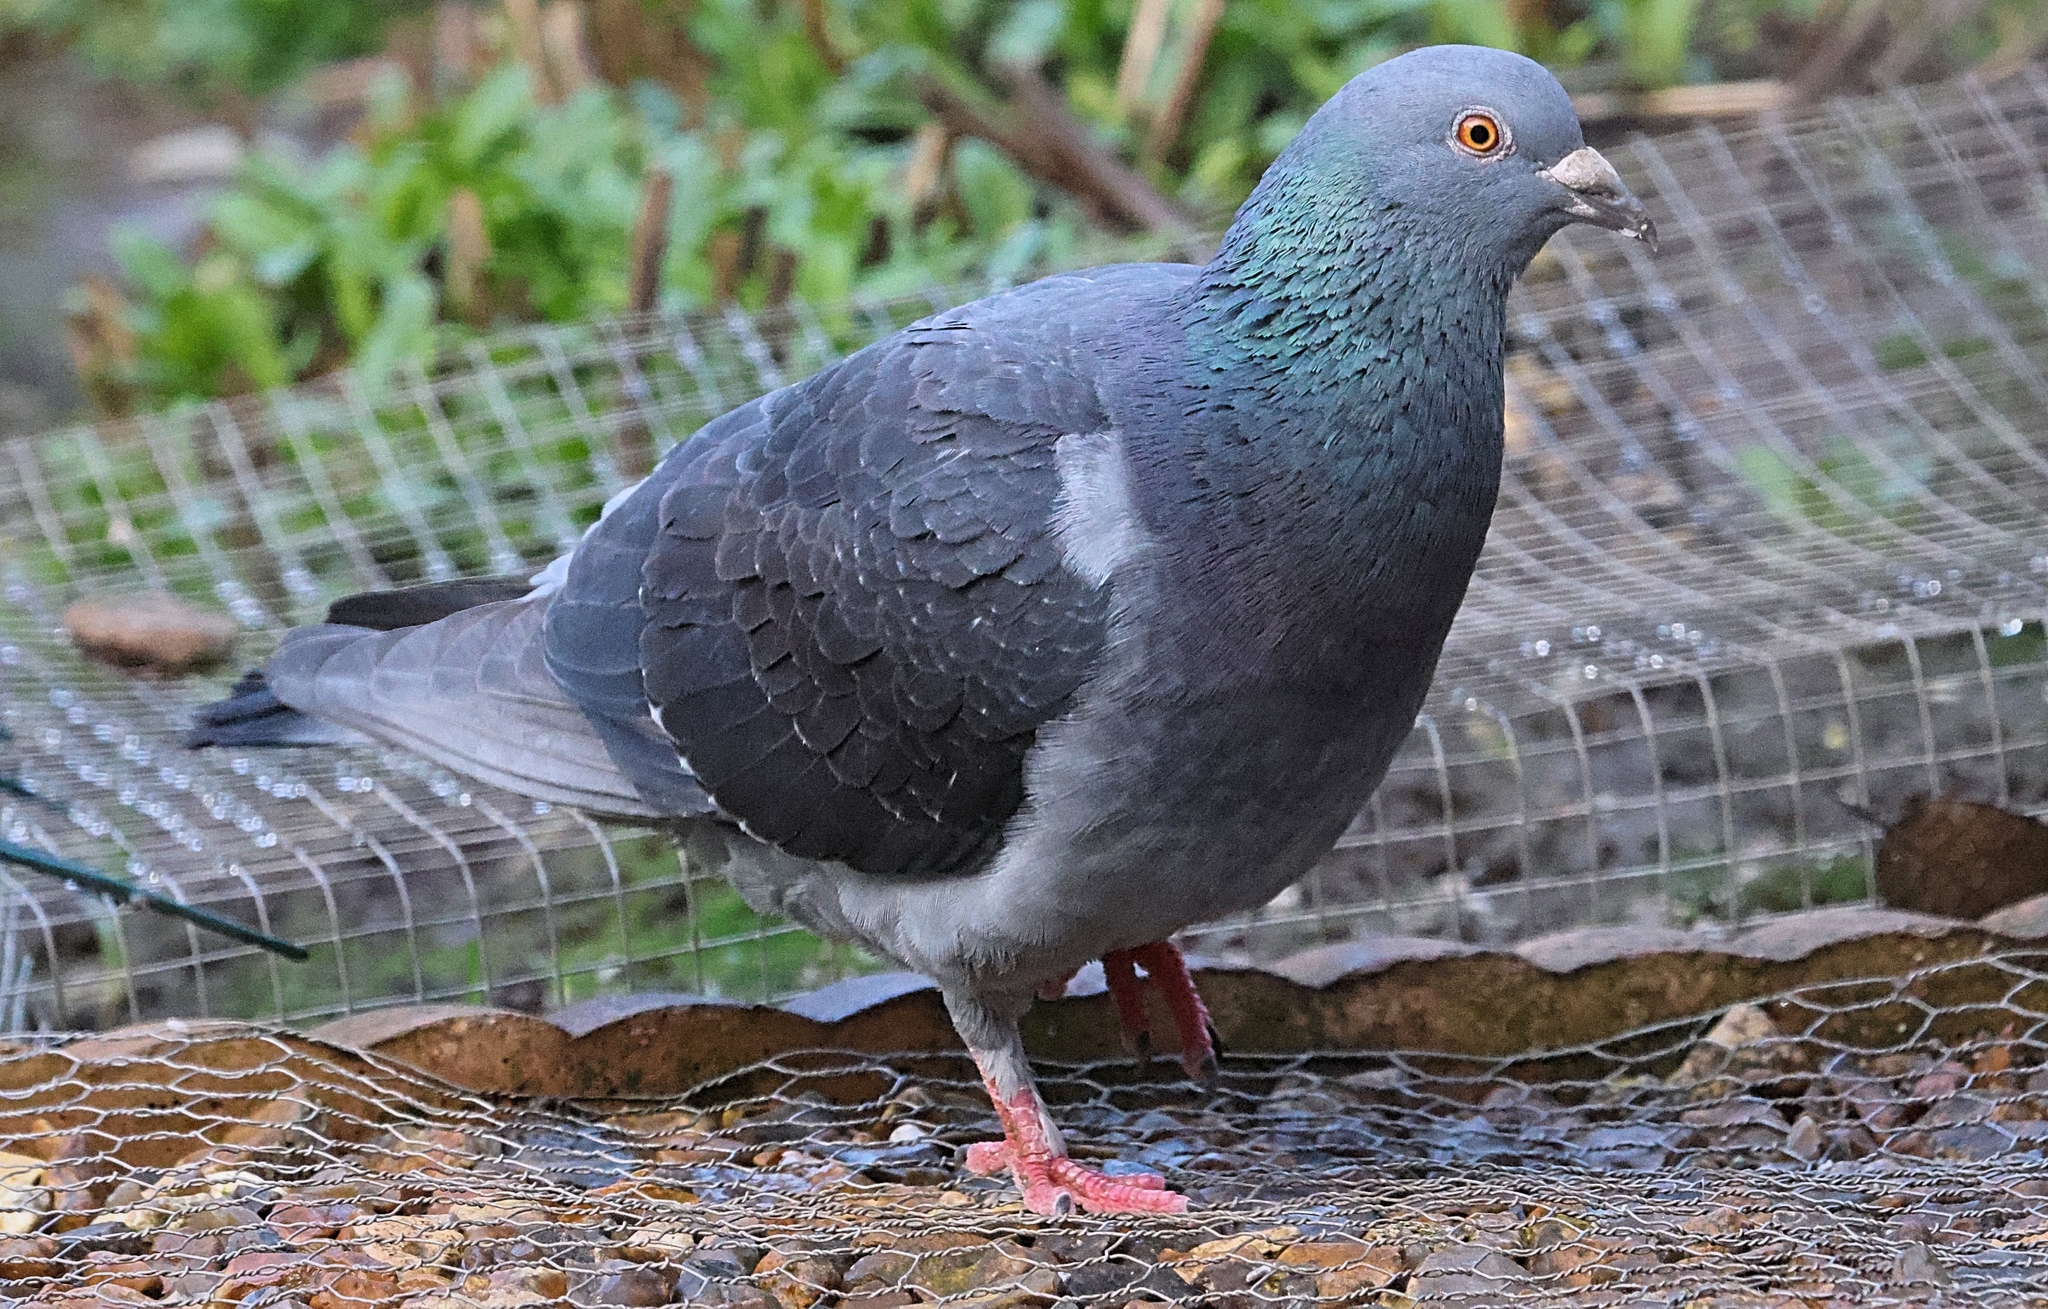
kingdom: Animalia
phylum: Chordata
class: Aves
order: Columbiformes
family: Columbidae
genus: Columba
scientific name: Columba livia
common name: Rock pigeon
